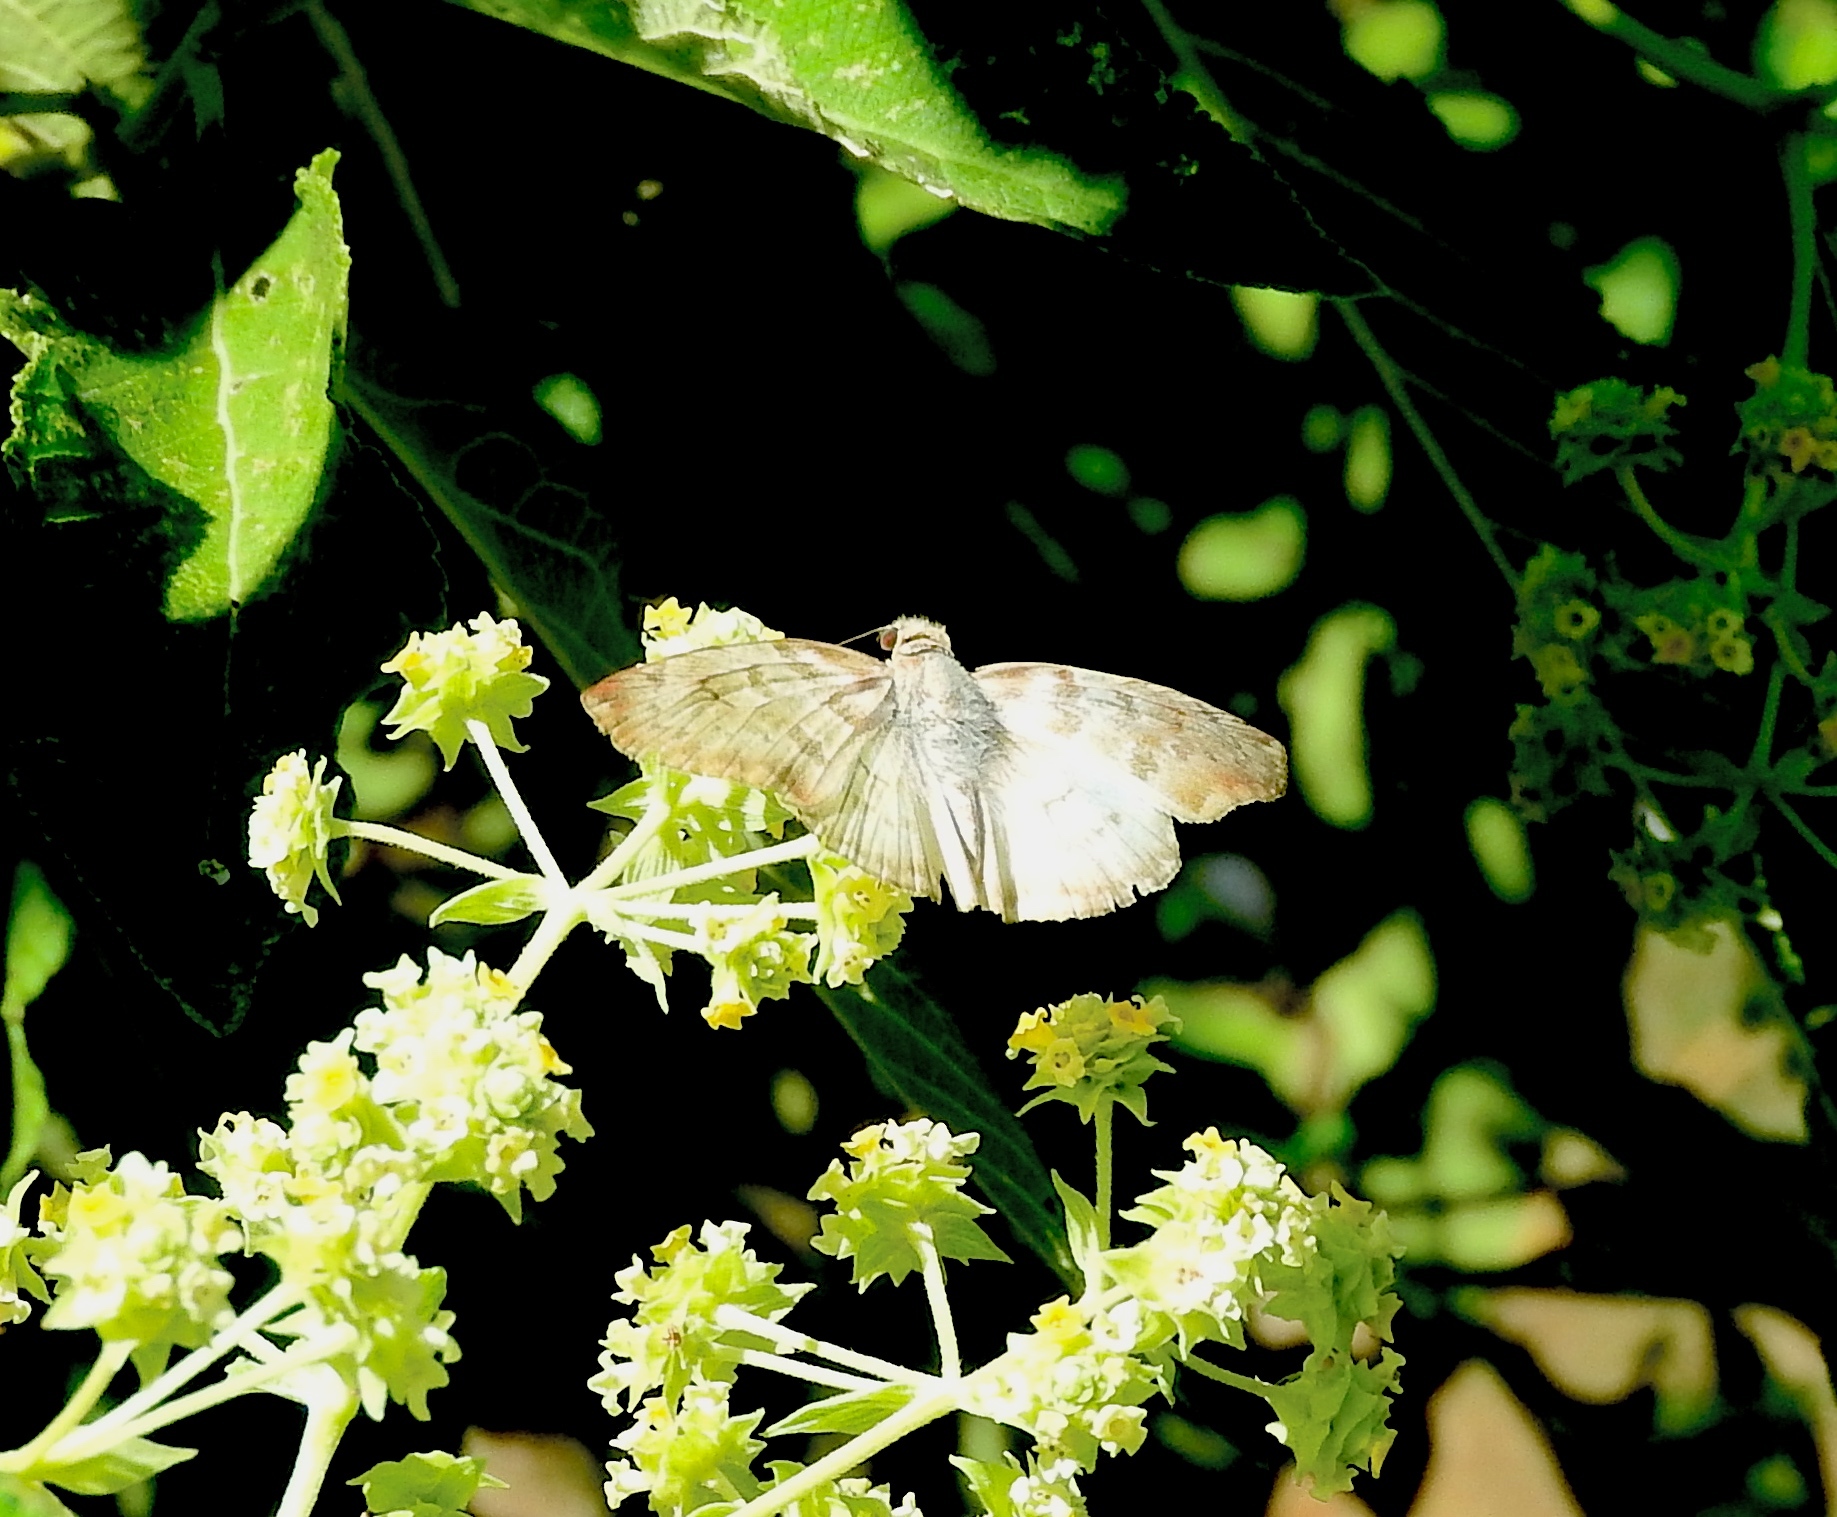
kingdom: Animalia
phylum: Arthropoda
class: Insecta
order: Lepidoptera
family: Hesperiidae
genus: Mylon
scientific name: Mylon pelopidas
